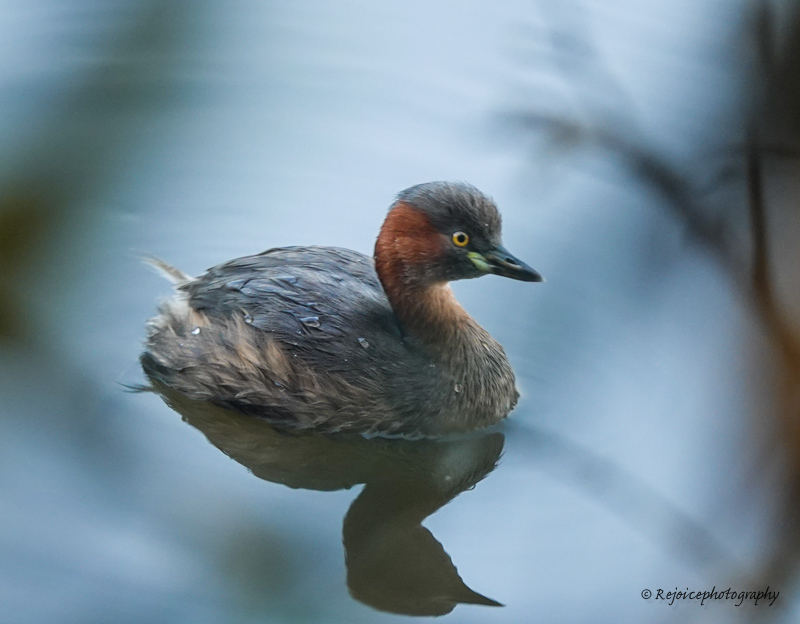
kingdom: Animalia
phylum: Chordata
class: Aves
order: Podicipediformes
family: Podicipedidae
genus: Tachybaptus
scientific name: Tachybaptus ruficollis
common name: Little grebe
